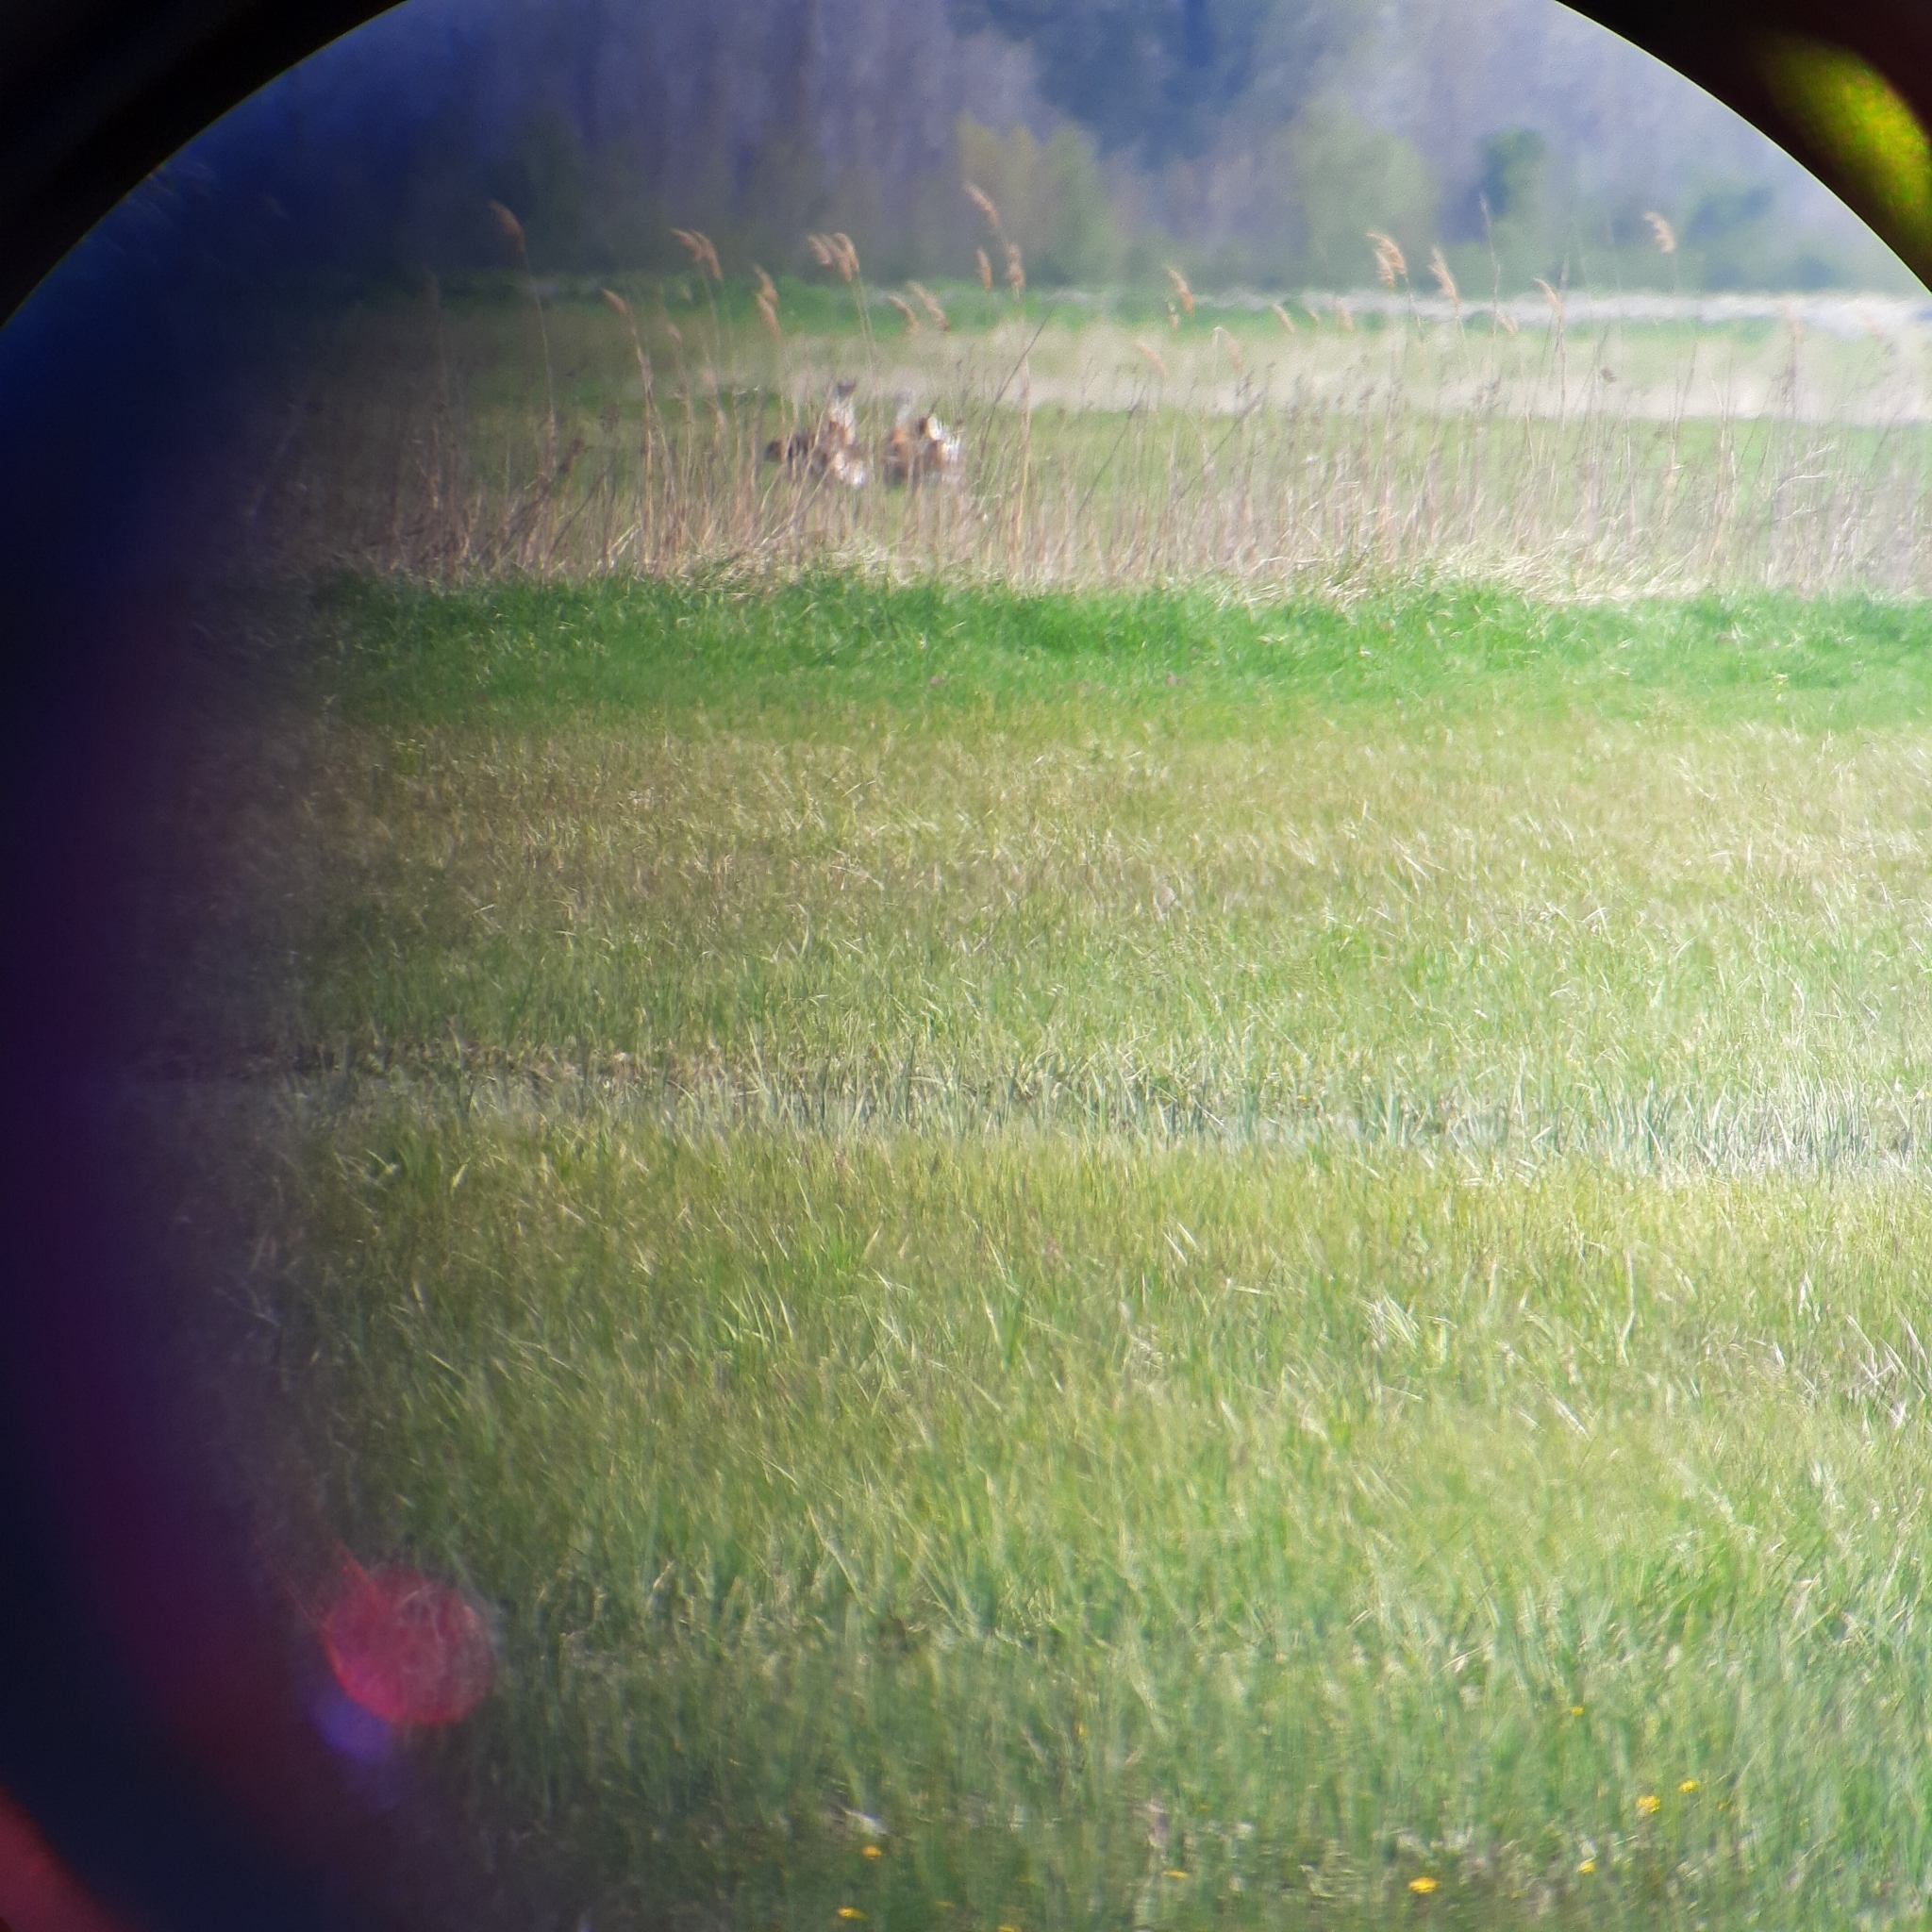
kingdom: Animalia
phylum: Chordata
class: Aves
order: Otidiformes
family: Otididae
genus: Otis
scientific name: Otis tarda
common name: Great bustard
